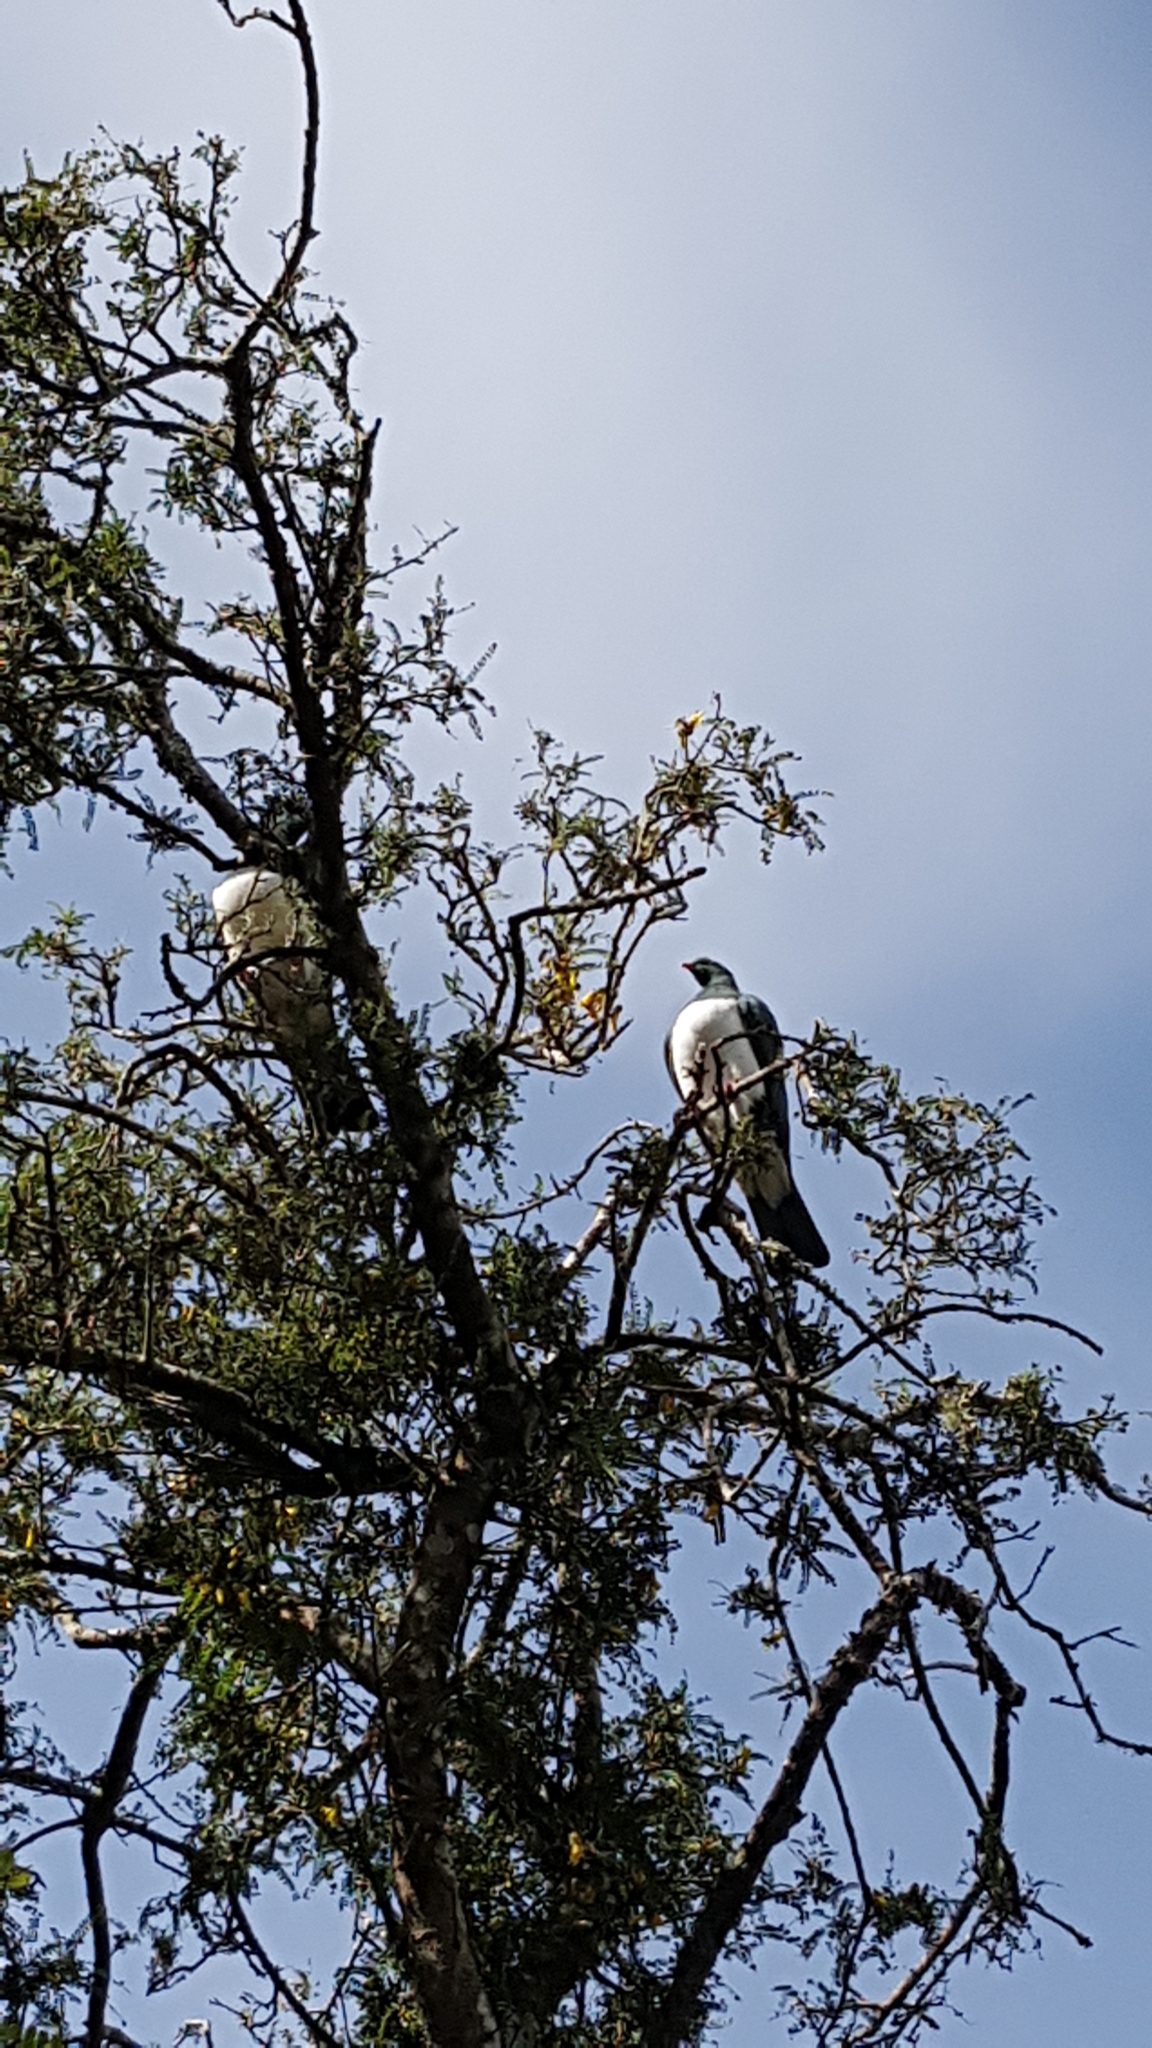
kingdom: Animalia
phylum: Chordata
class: Aves
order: Columbiformes
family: Columbidae
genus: Hemiphaga
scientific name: Hemiphaga novaeseelandiae
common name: New zealand pigeon
